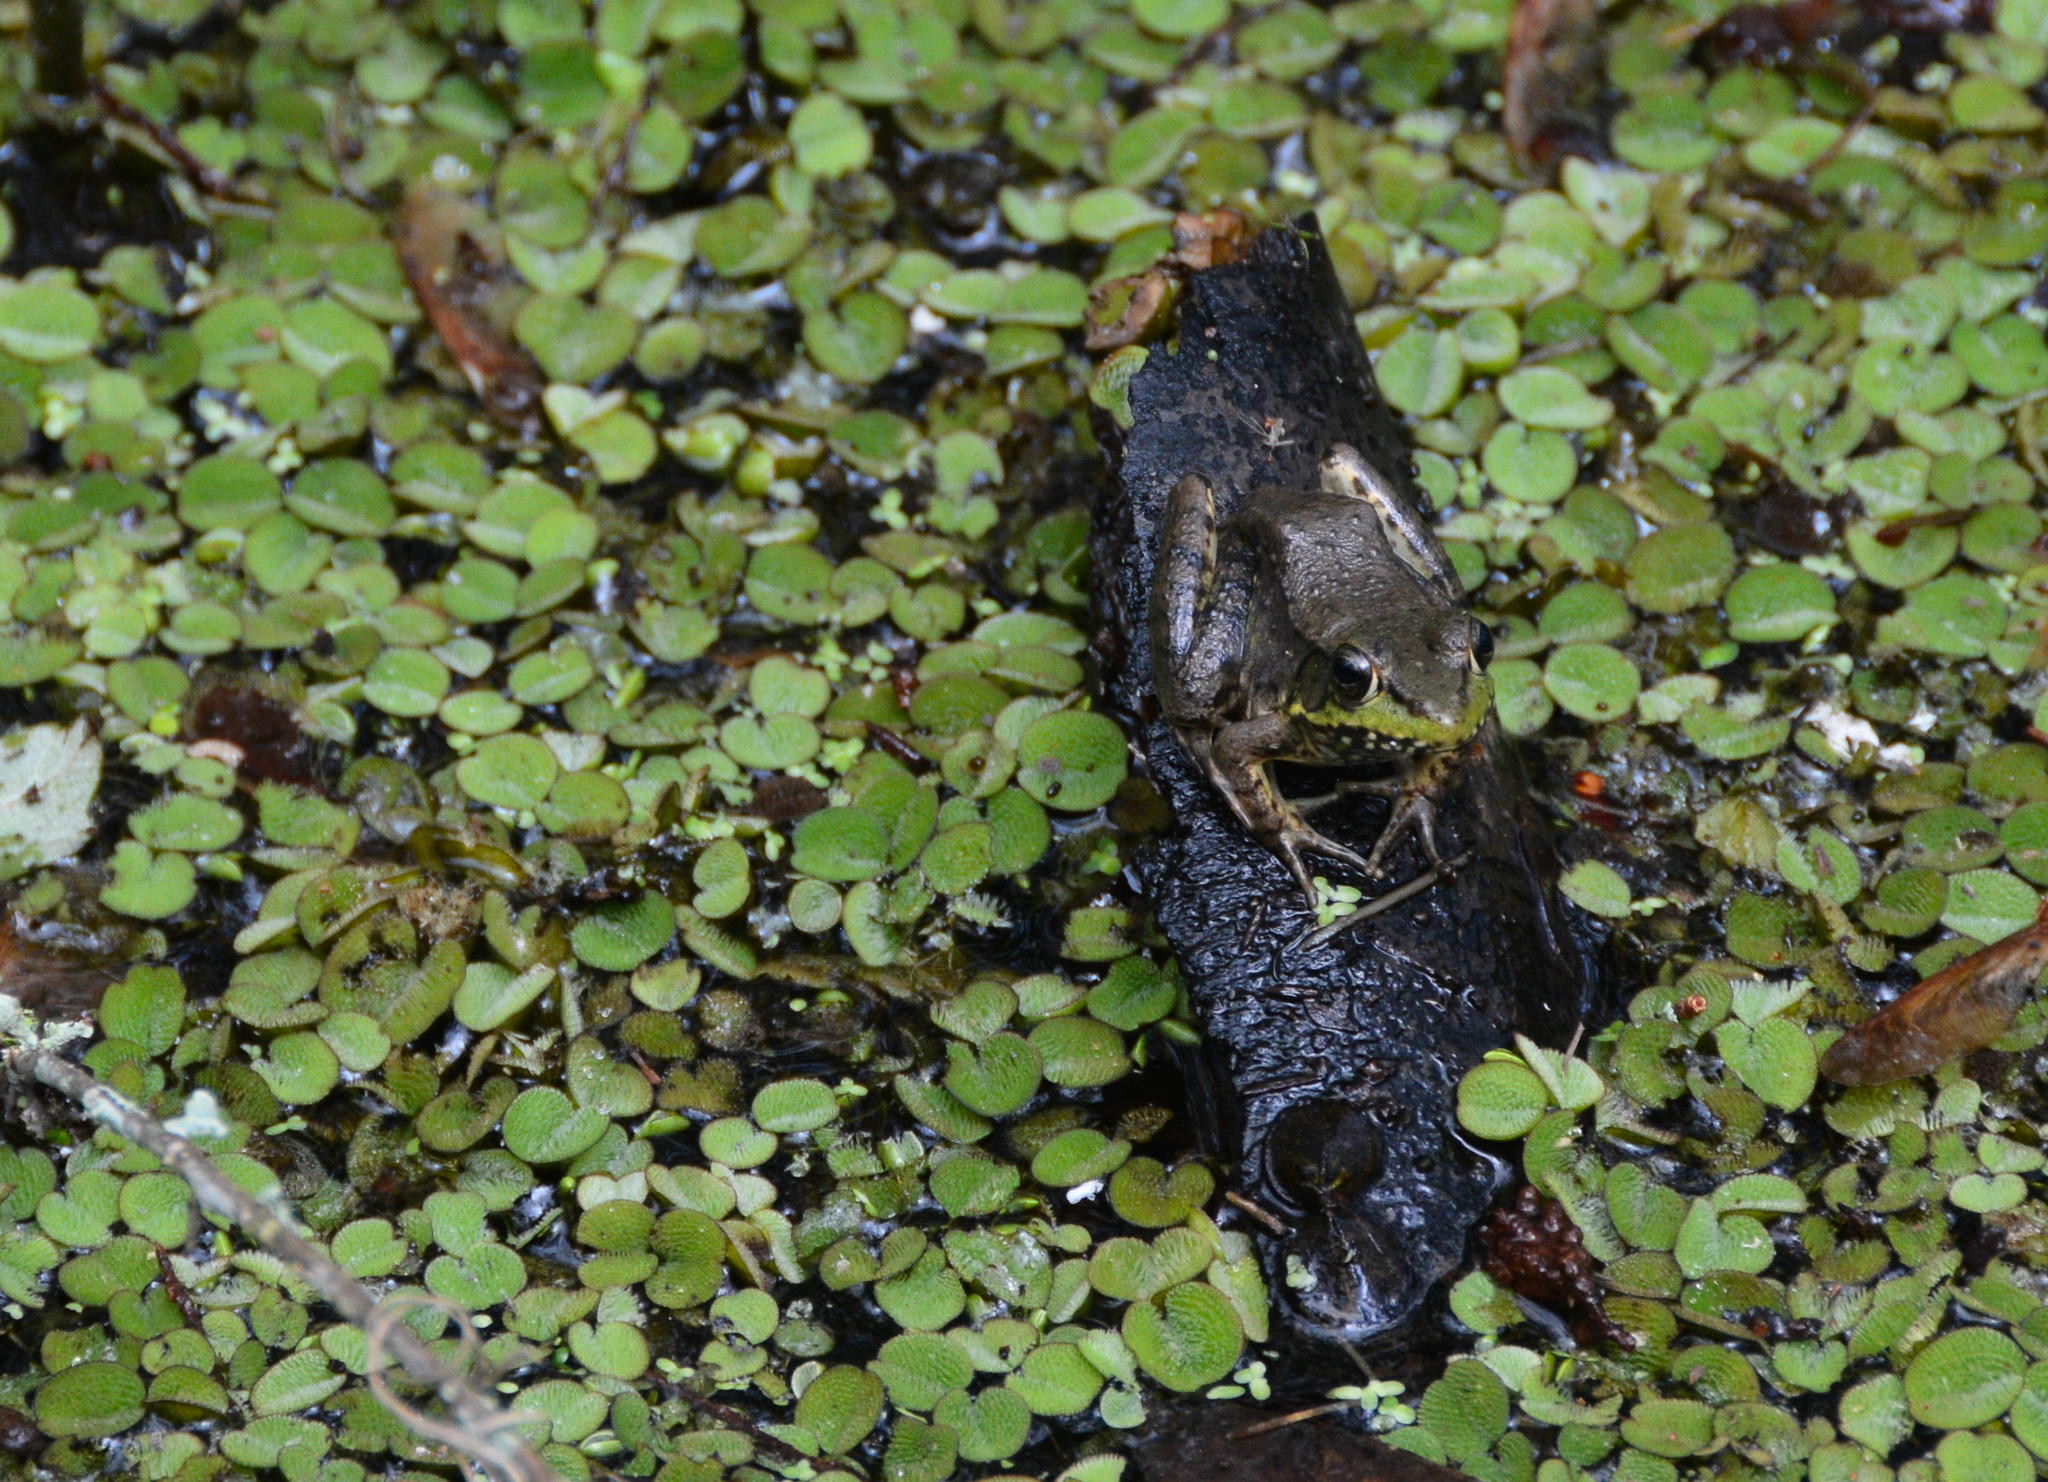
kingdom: Animalia
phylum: Chordata
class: Amphibia
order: Anura
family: Ranidae
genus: Lithobates
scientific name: Lithobates clamitans
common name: Green frog
